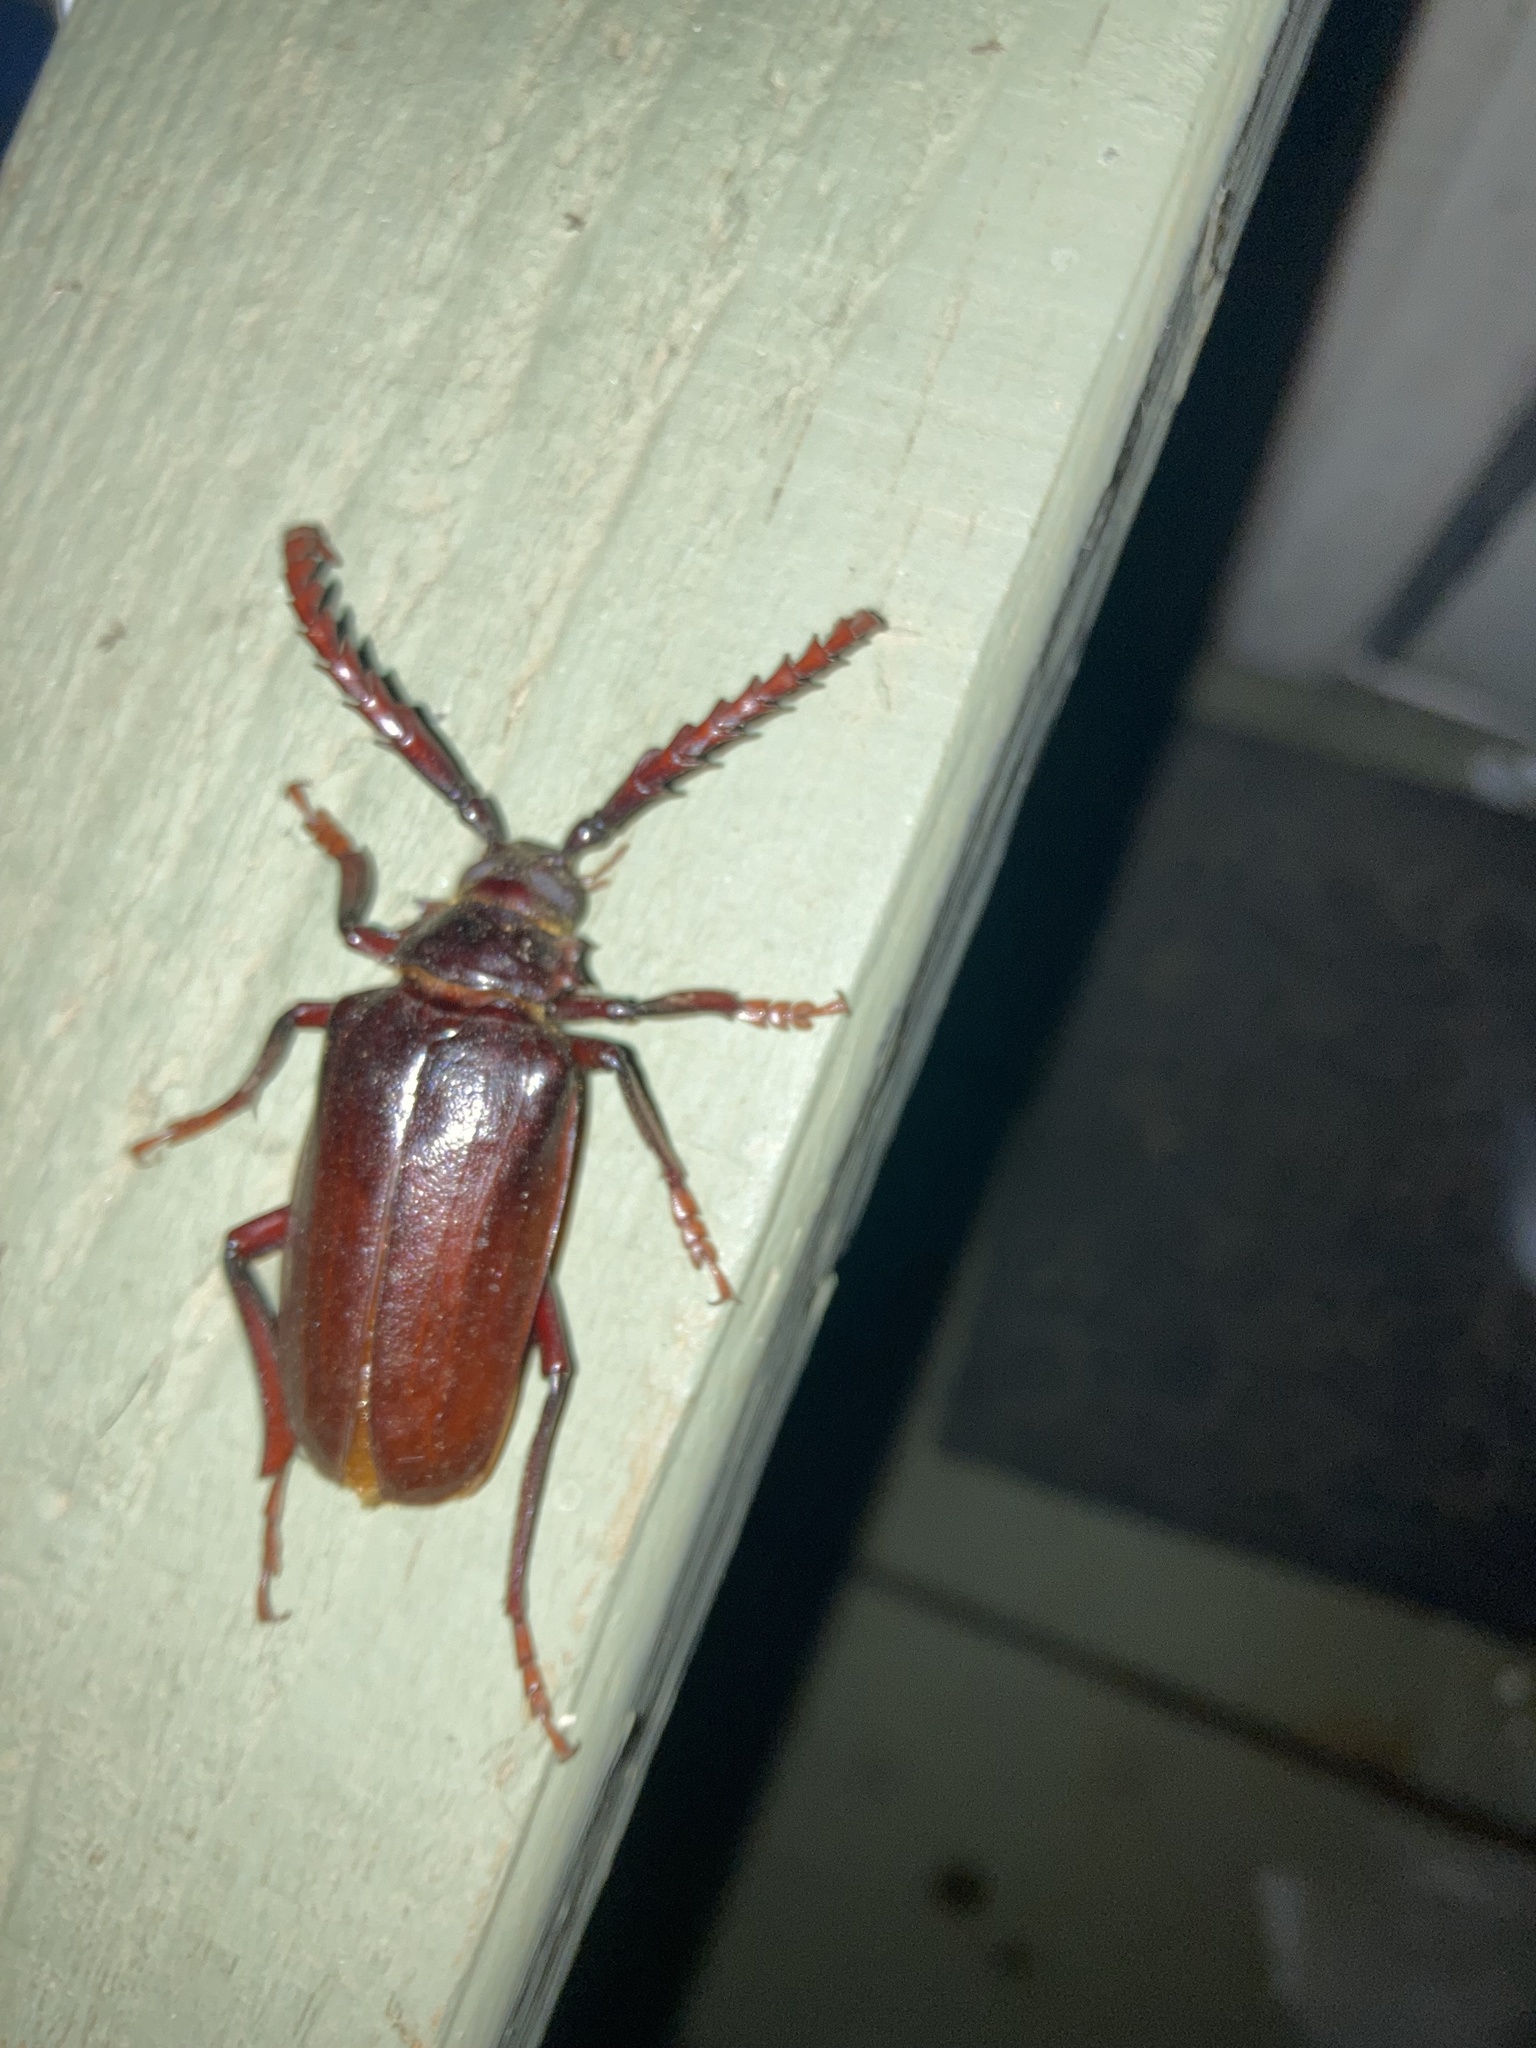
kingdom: Animalia
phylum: Arthropoda
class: Insecta
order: Coleoptera
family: Cerambycidae
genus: Prionus
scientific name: Prionus californicus
